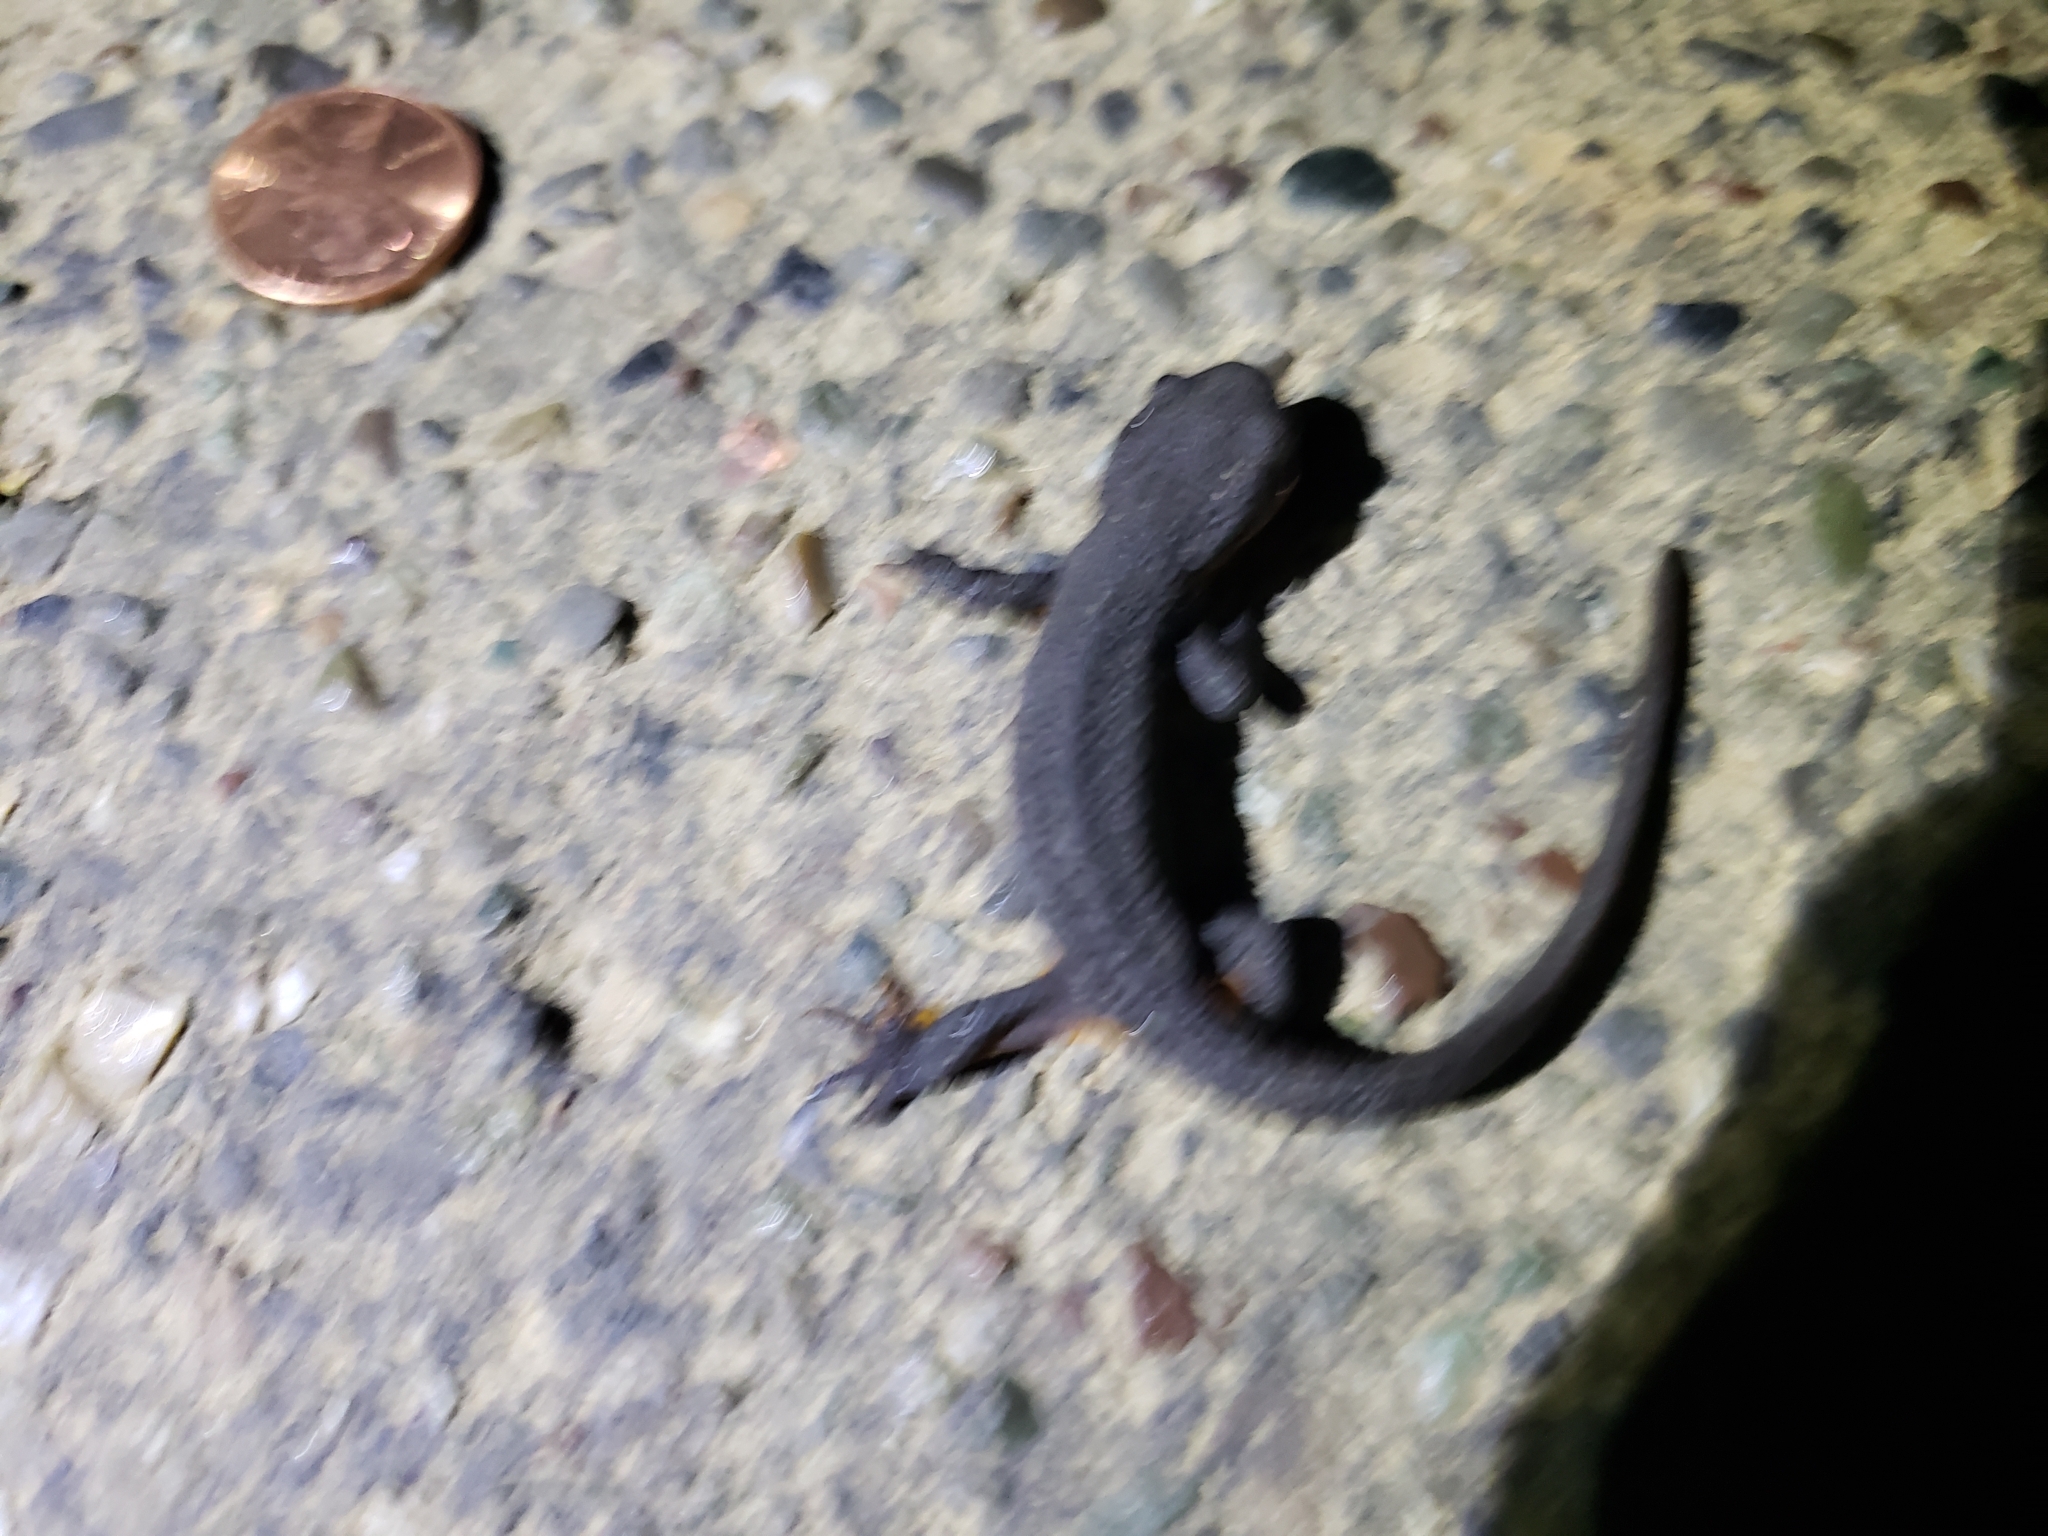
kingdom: Animalia
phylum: Chordata
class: Amphibia
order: Caudata
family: Salamandridae
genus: Taricha
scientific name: Taricha granulosa
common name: Roughskin newt
